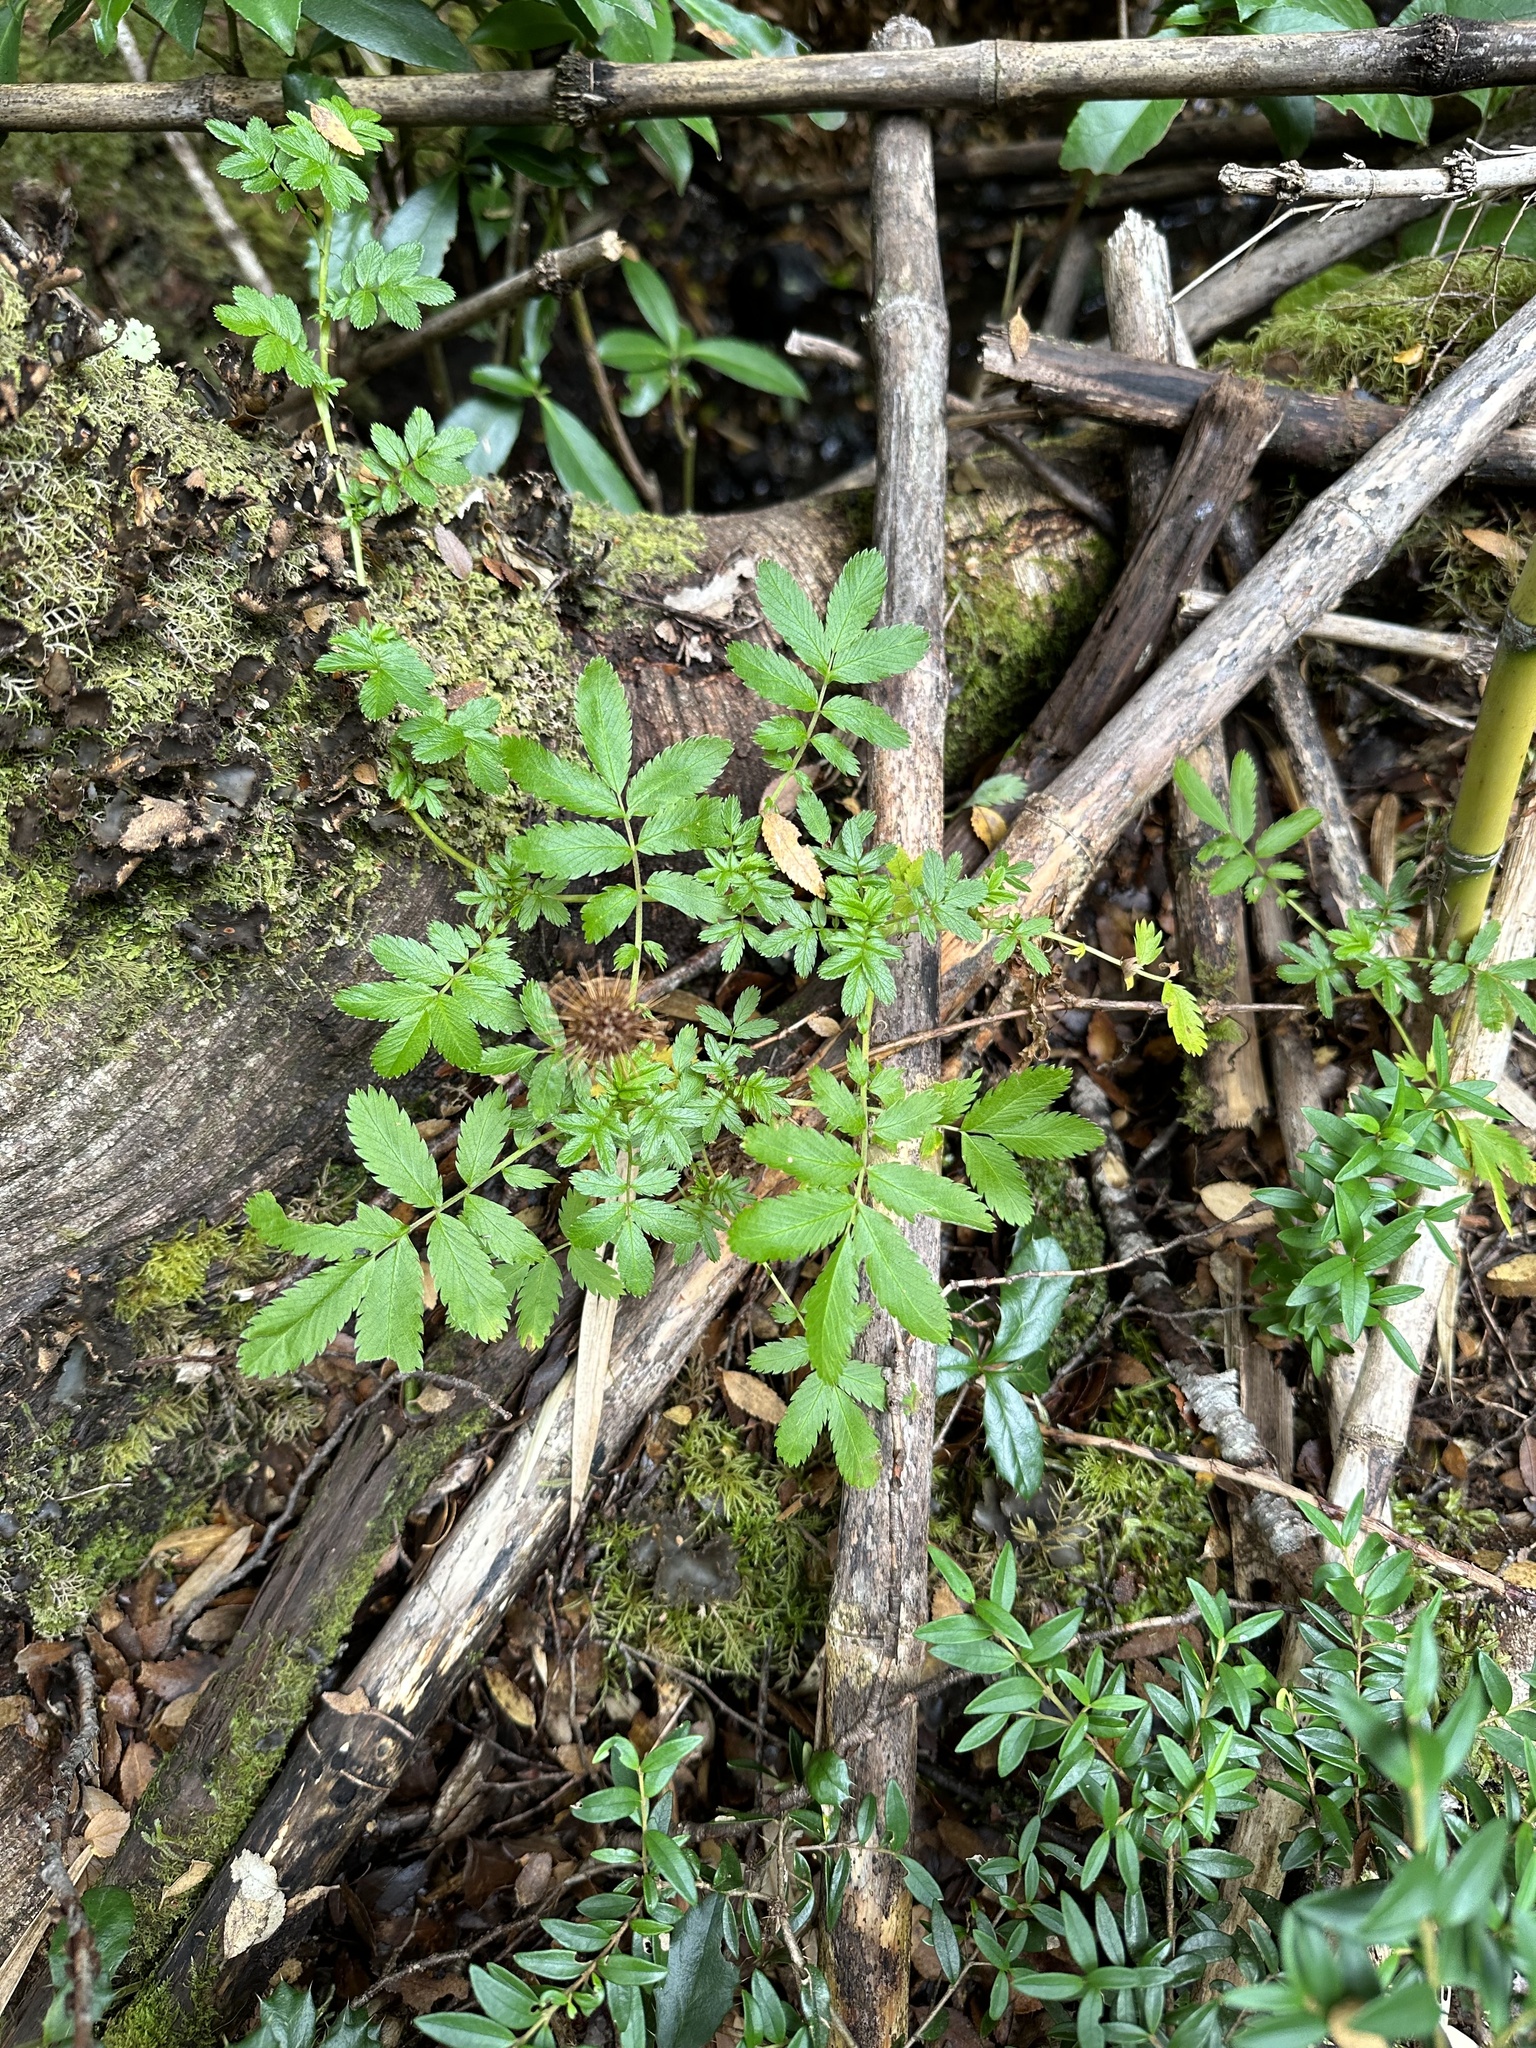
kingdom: Plantae
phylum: Tracheophyta
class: Magnoliopsida
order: Rosales
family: Rosaceae
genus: Acaena
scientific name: Acaena ovalifolia
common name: Two-spined acaena
